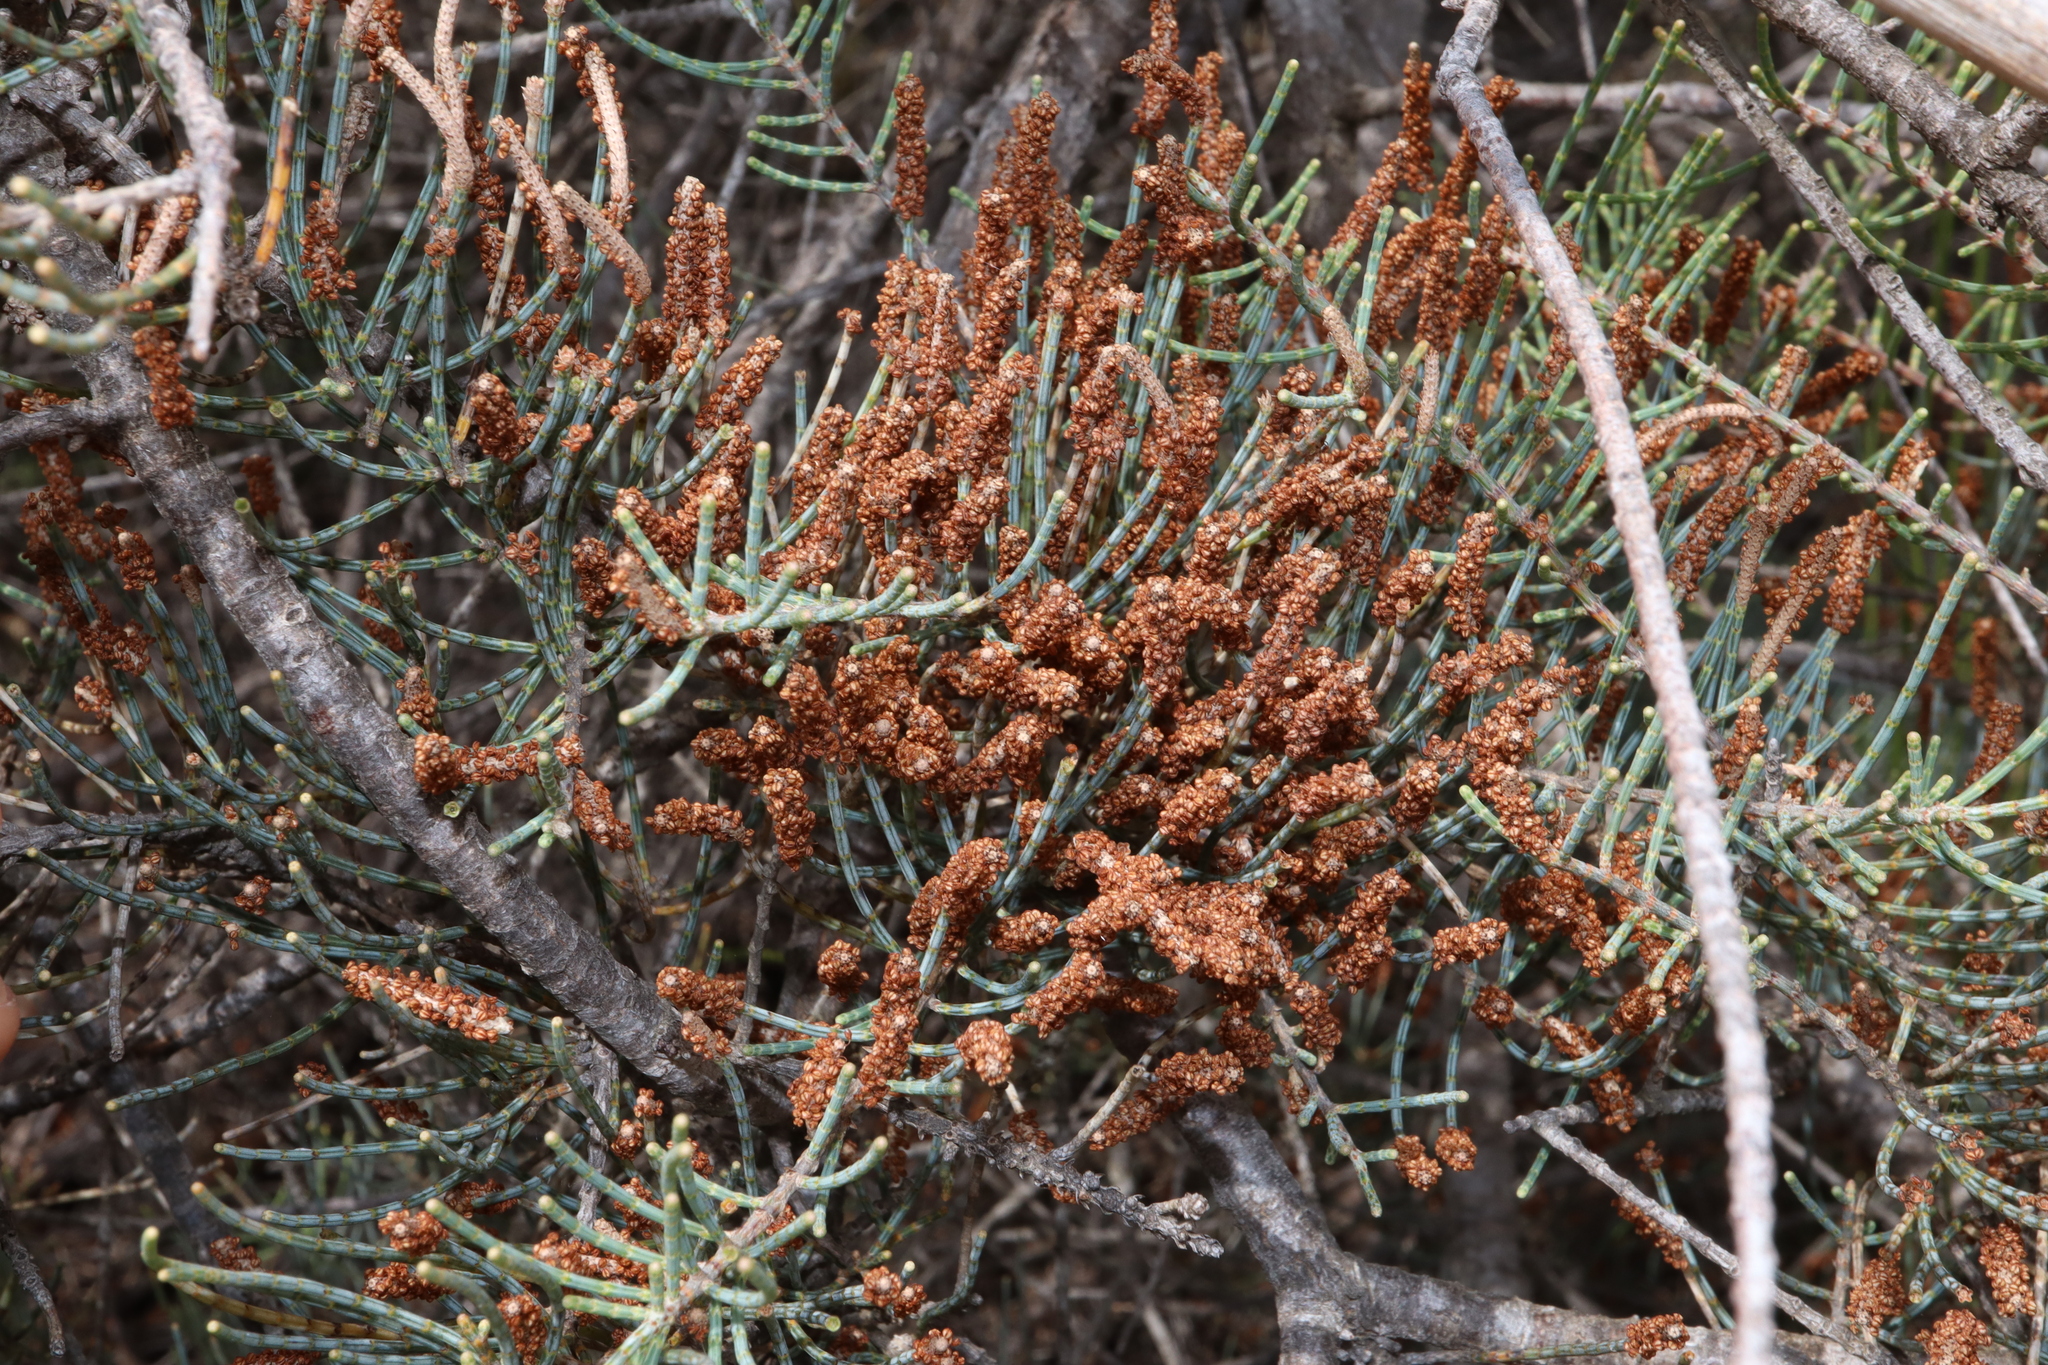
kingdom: Plantae
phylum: Tracheophyta
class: Magnoliopsida
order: Fagales
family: Casuarinaceae
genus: Allocasuarina
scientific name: Allocasuarina humilis
